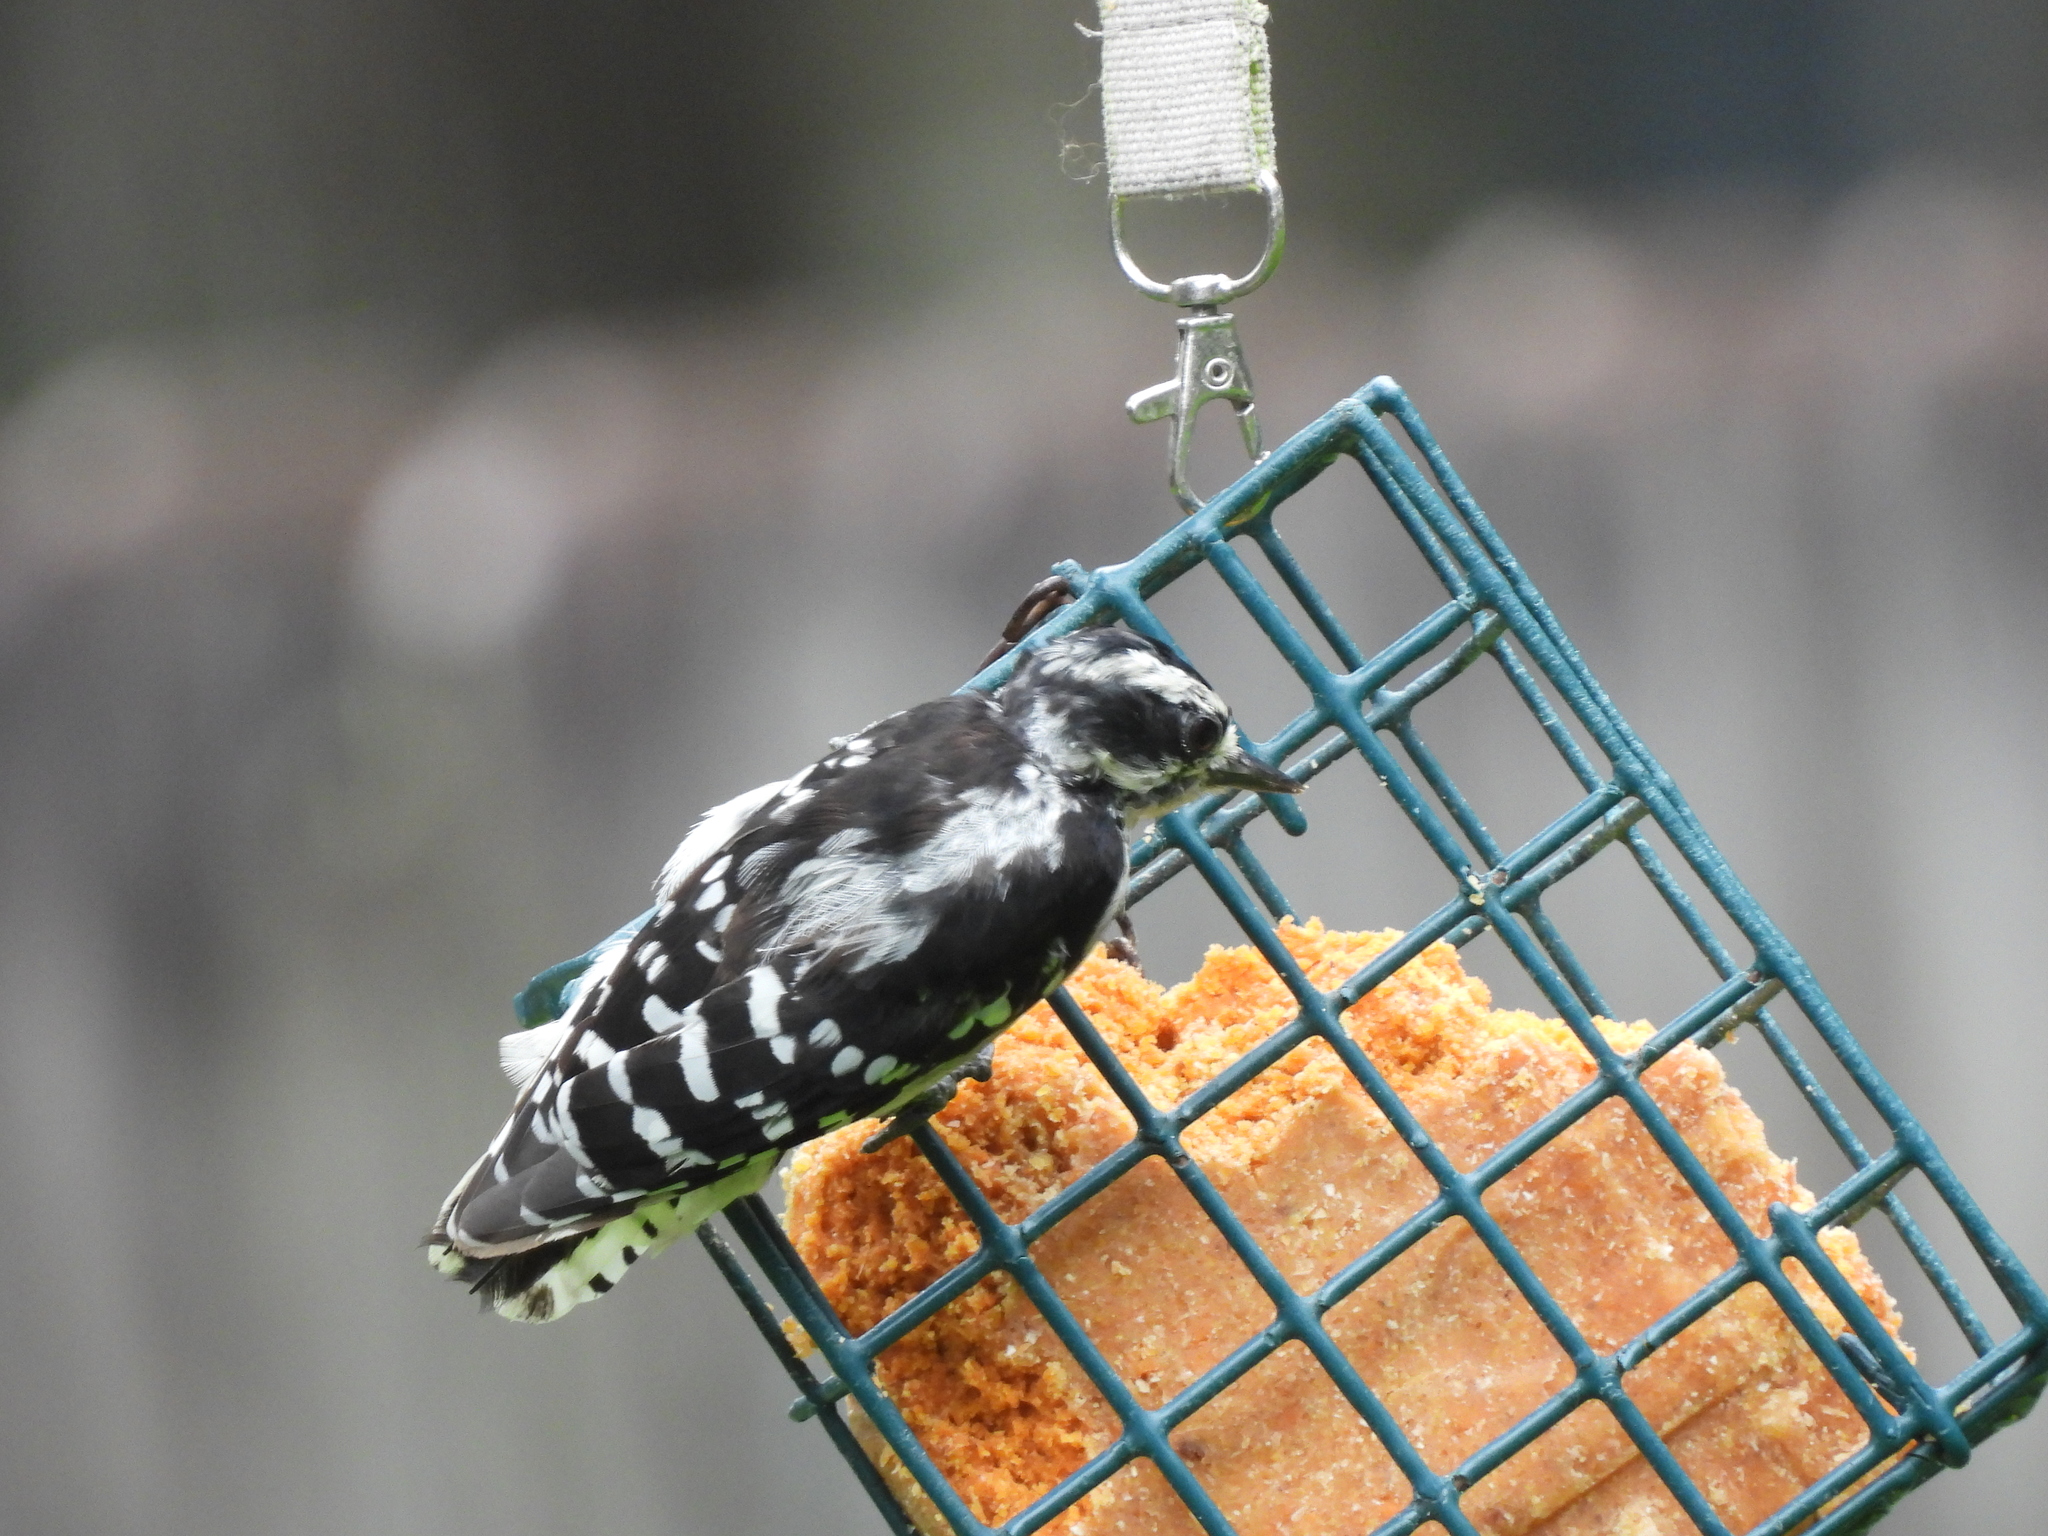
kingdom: Animalia
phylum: Chordata
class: Aves
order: Piciformes
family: Picidae
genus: Dryobates
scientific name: Dryobates pubescens
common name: Downy woodpecker
